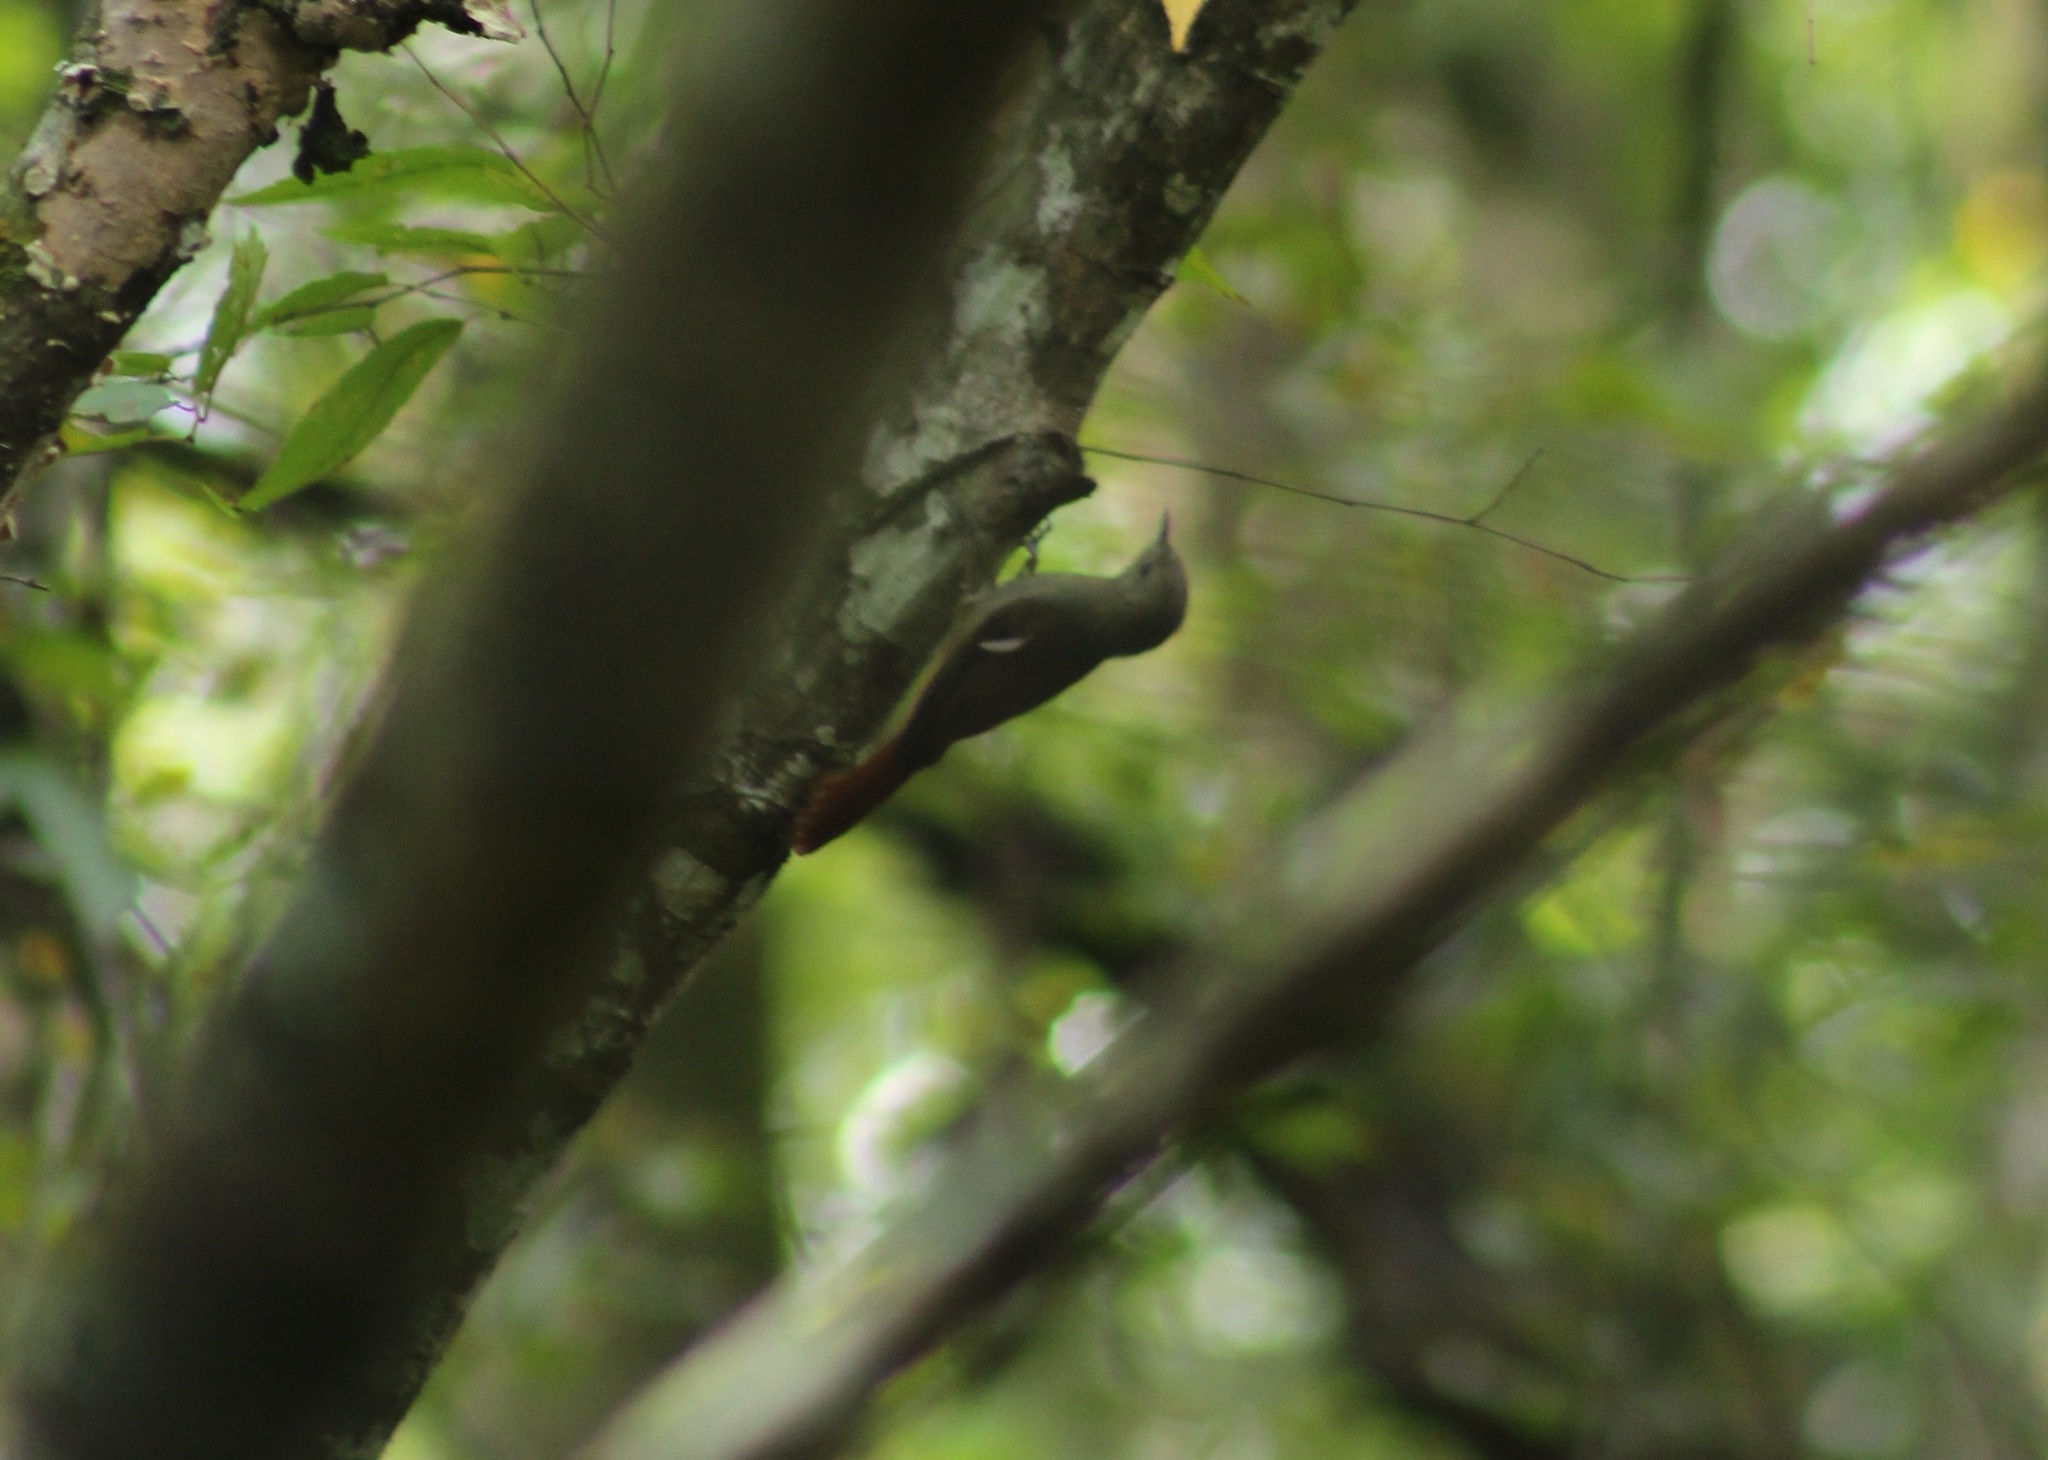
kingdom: Animalia
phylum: Chordata
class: Aves
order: Passeriformes
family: Furnariidae
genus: Sittasomus
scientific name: Sittasomus griseicapillus
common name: Olivaceous woodcreeper
